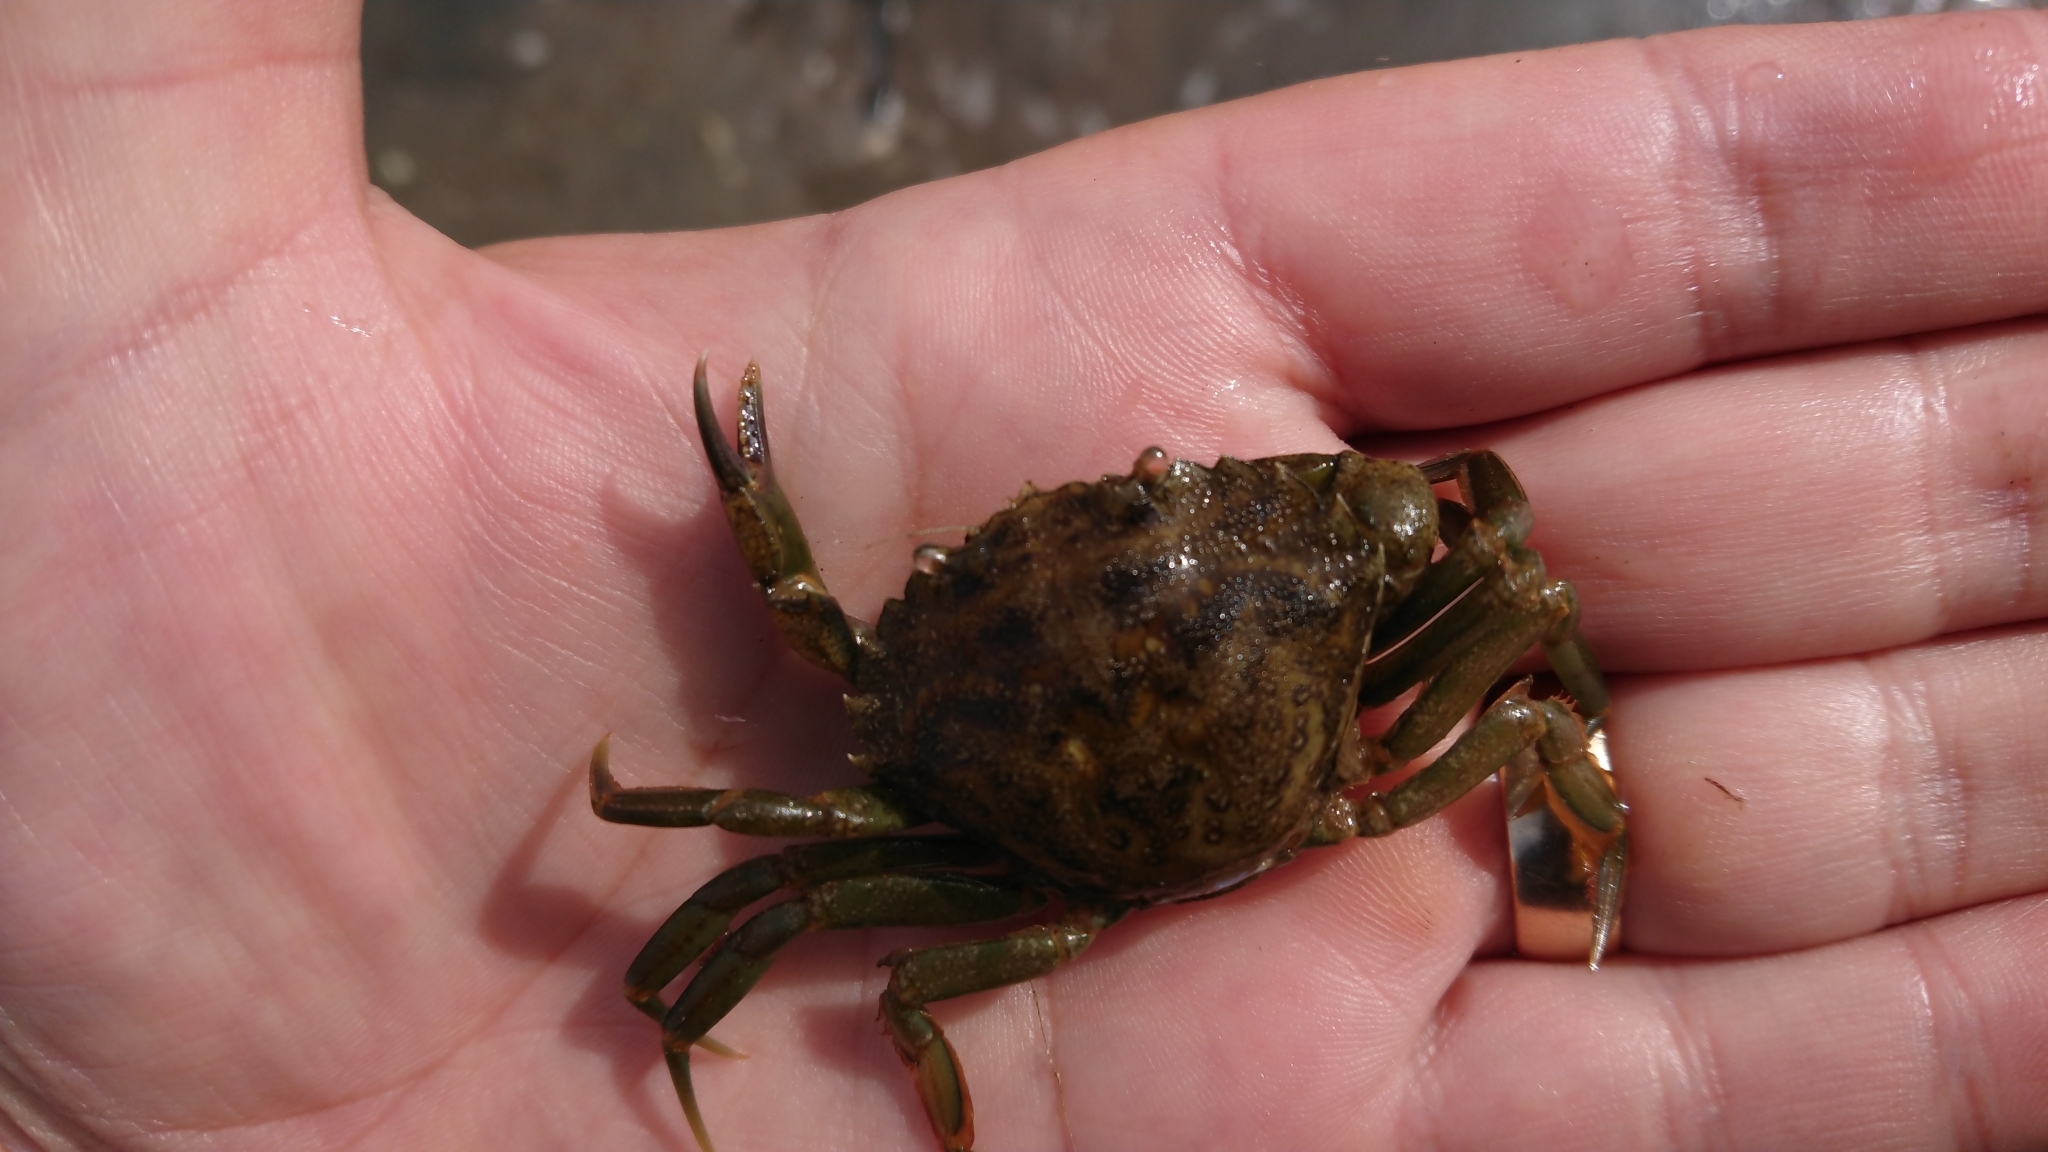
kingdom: Animalia
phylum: Arthropoda
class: Malacostraca
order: Decapoda
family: Carcinidae
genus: Carcinus
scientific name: Carcinus maenas
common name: European green crab
